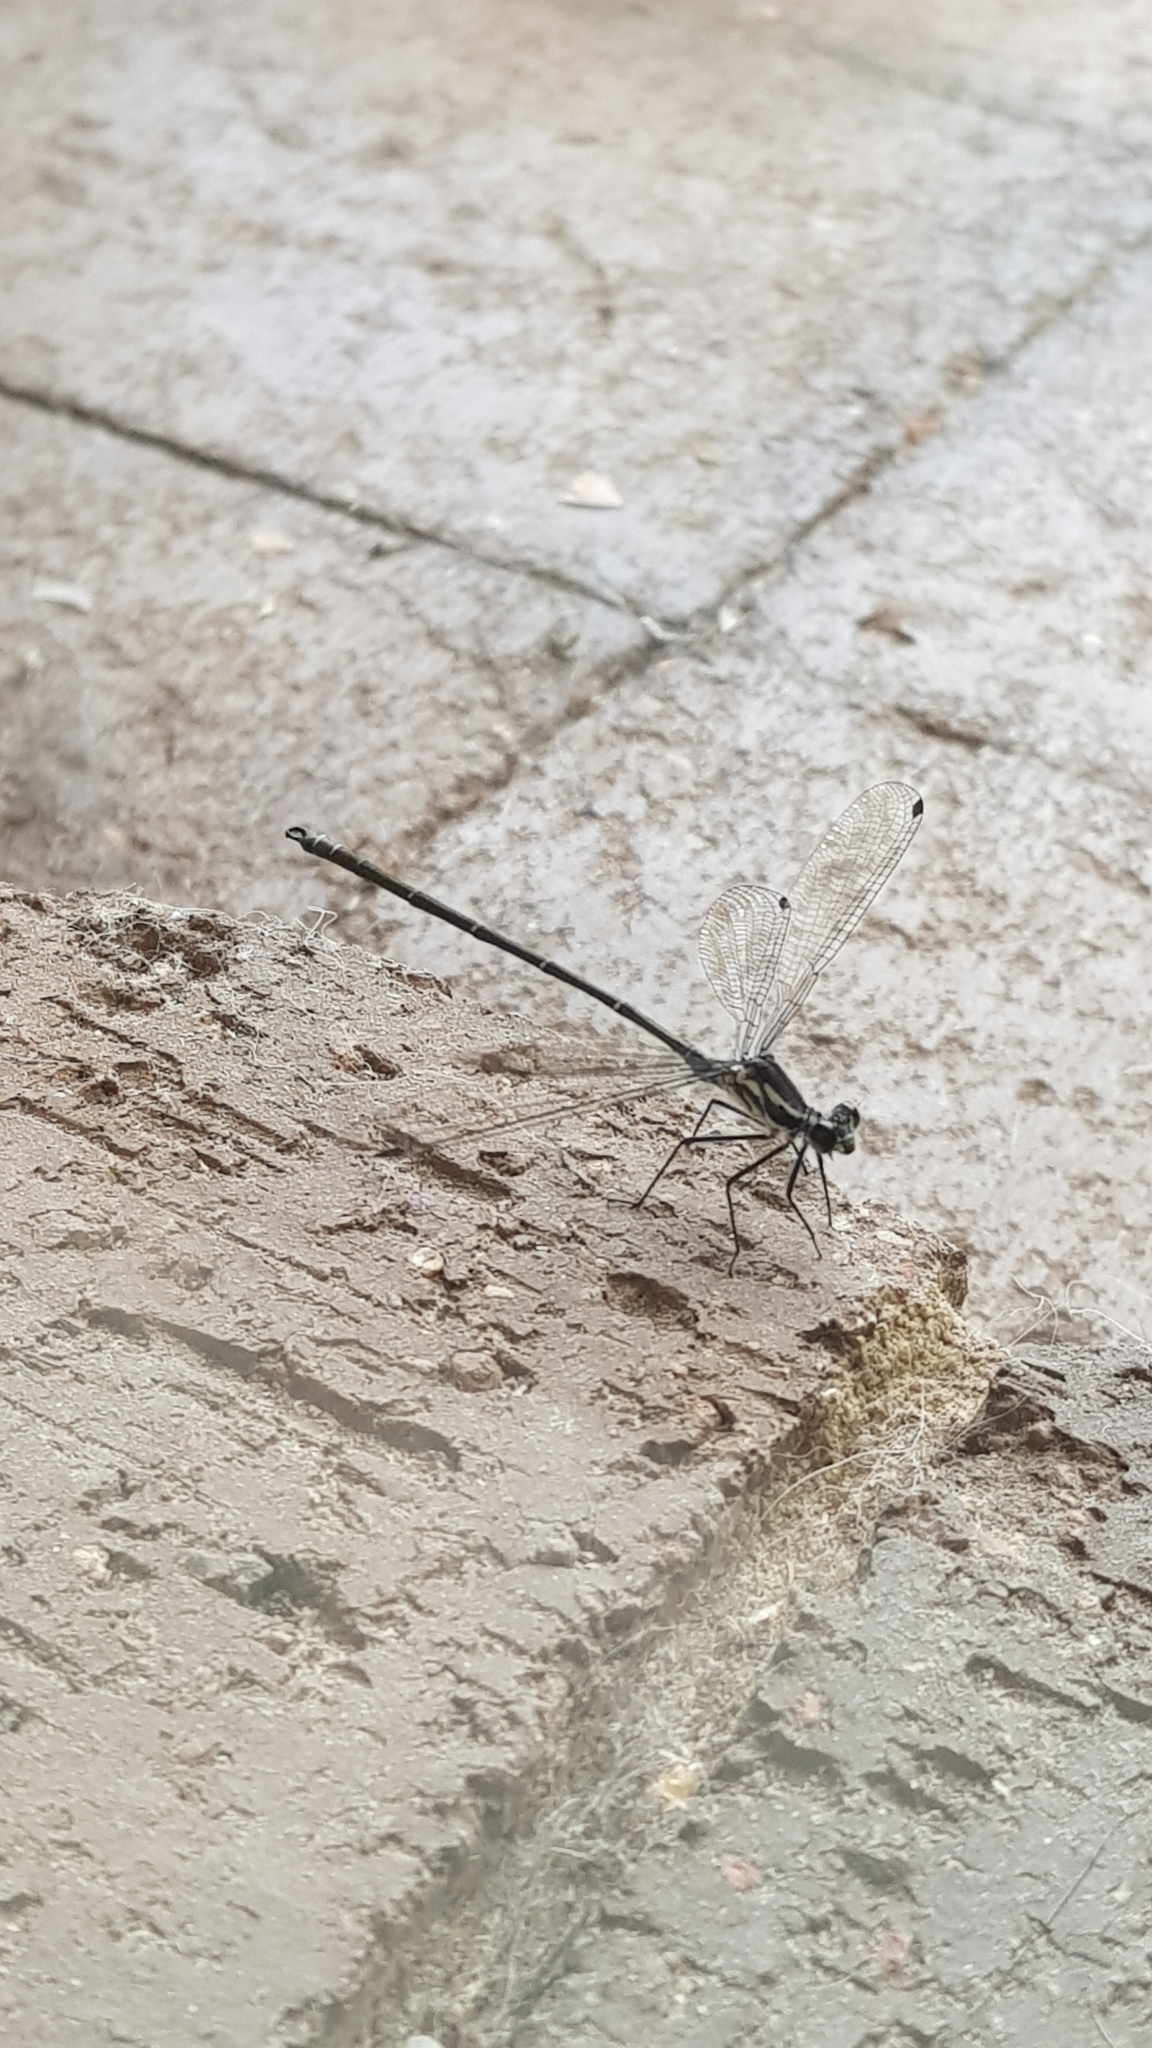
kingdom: Animalia
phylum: Arthropoda
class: Insecta
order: Odonata
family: Argiolestidae
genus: Austroargiolestes
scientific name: Austroargiolestes icteromelas
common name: Common flatwing
